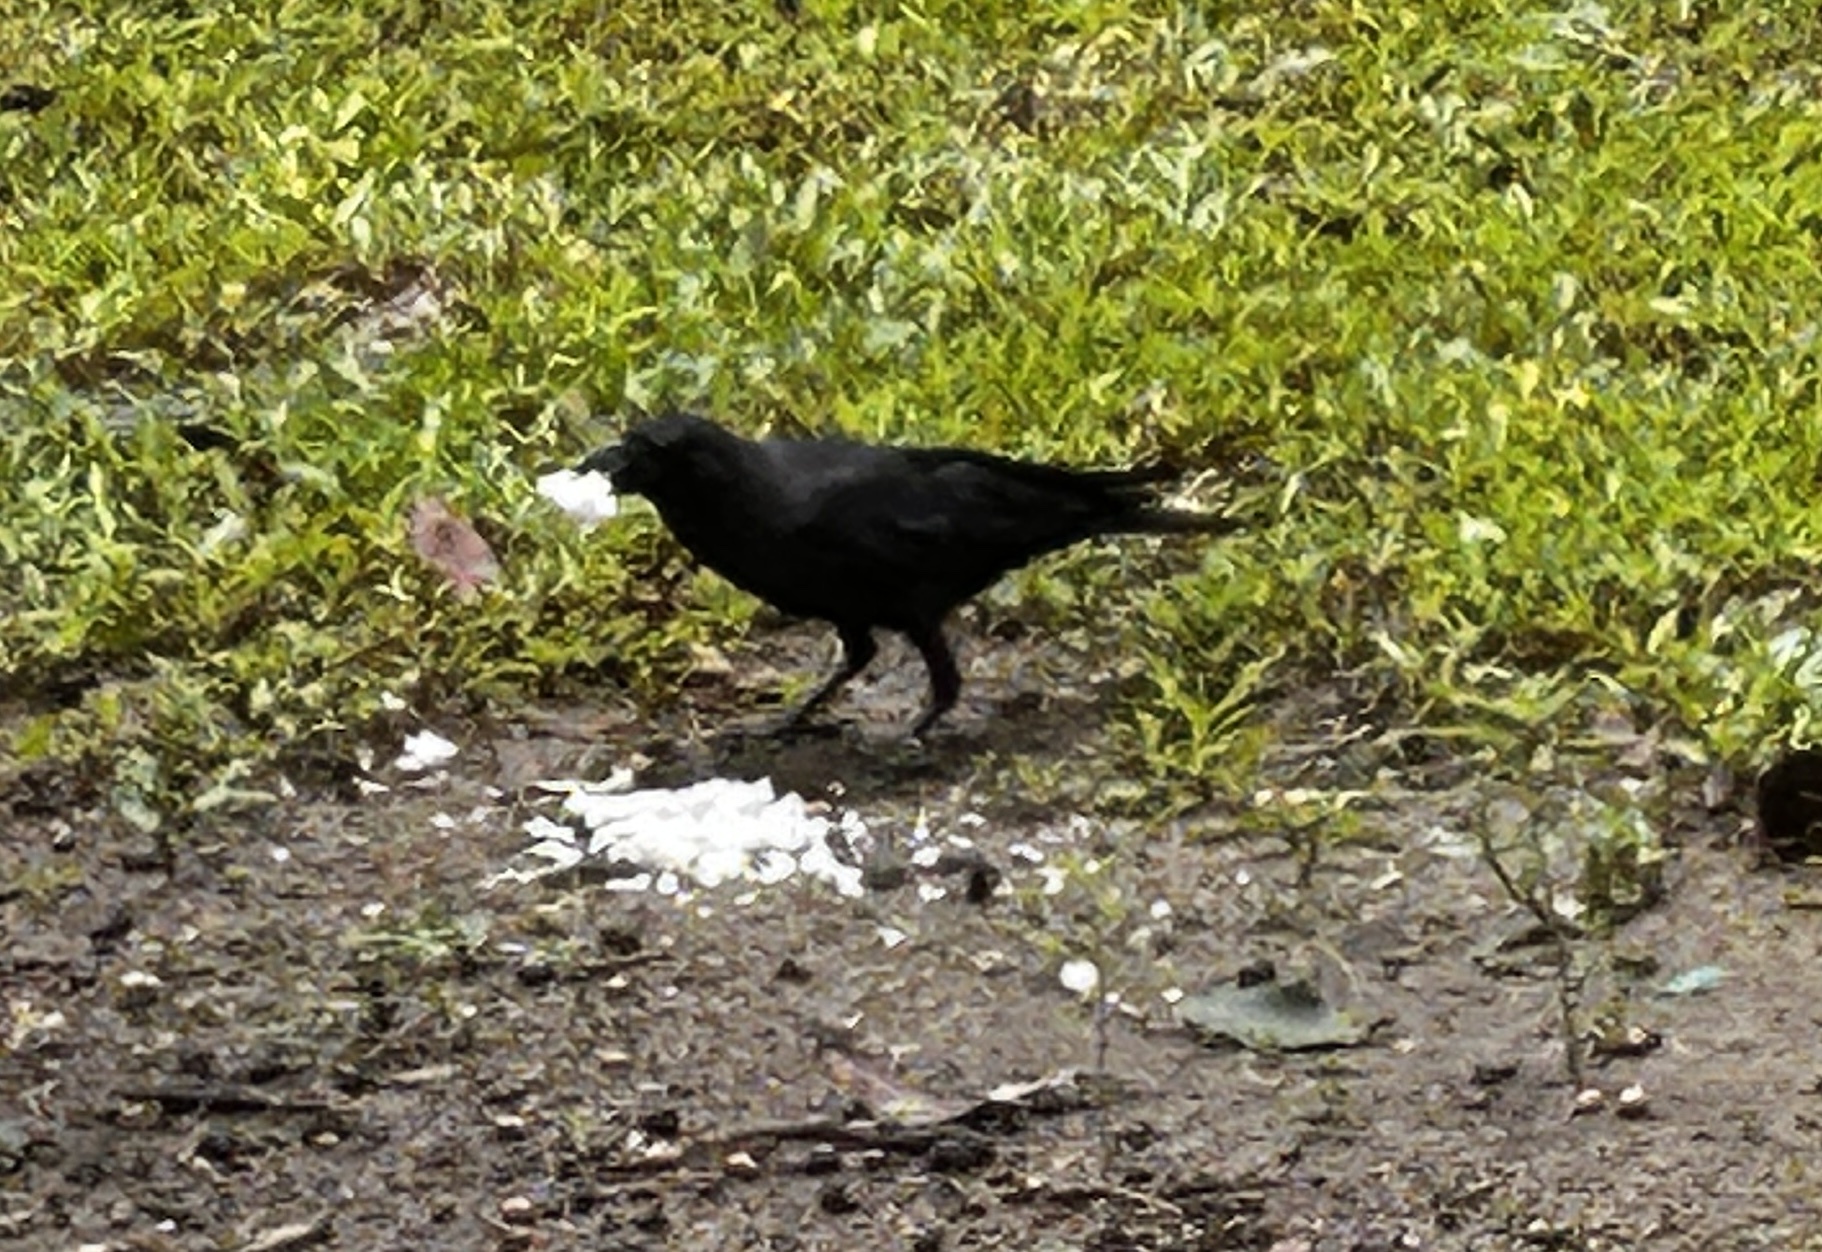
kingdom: Animalia
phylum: Chordata
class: Aves
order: Passeriformes
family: Corvidae
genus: Corvus
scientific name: Corvus splendens
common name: House crow
